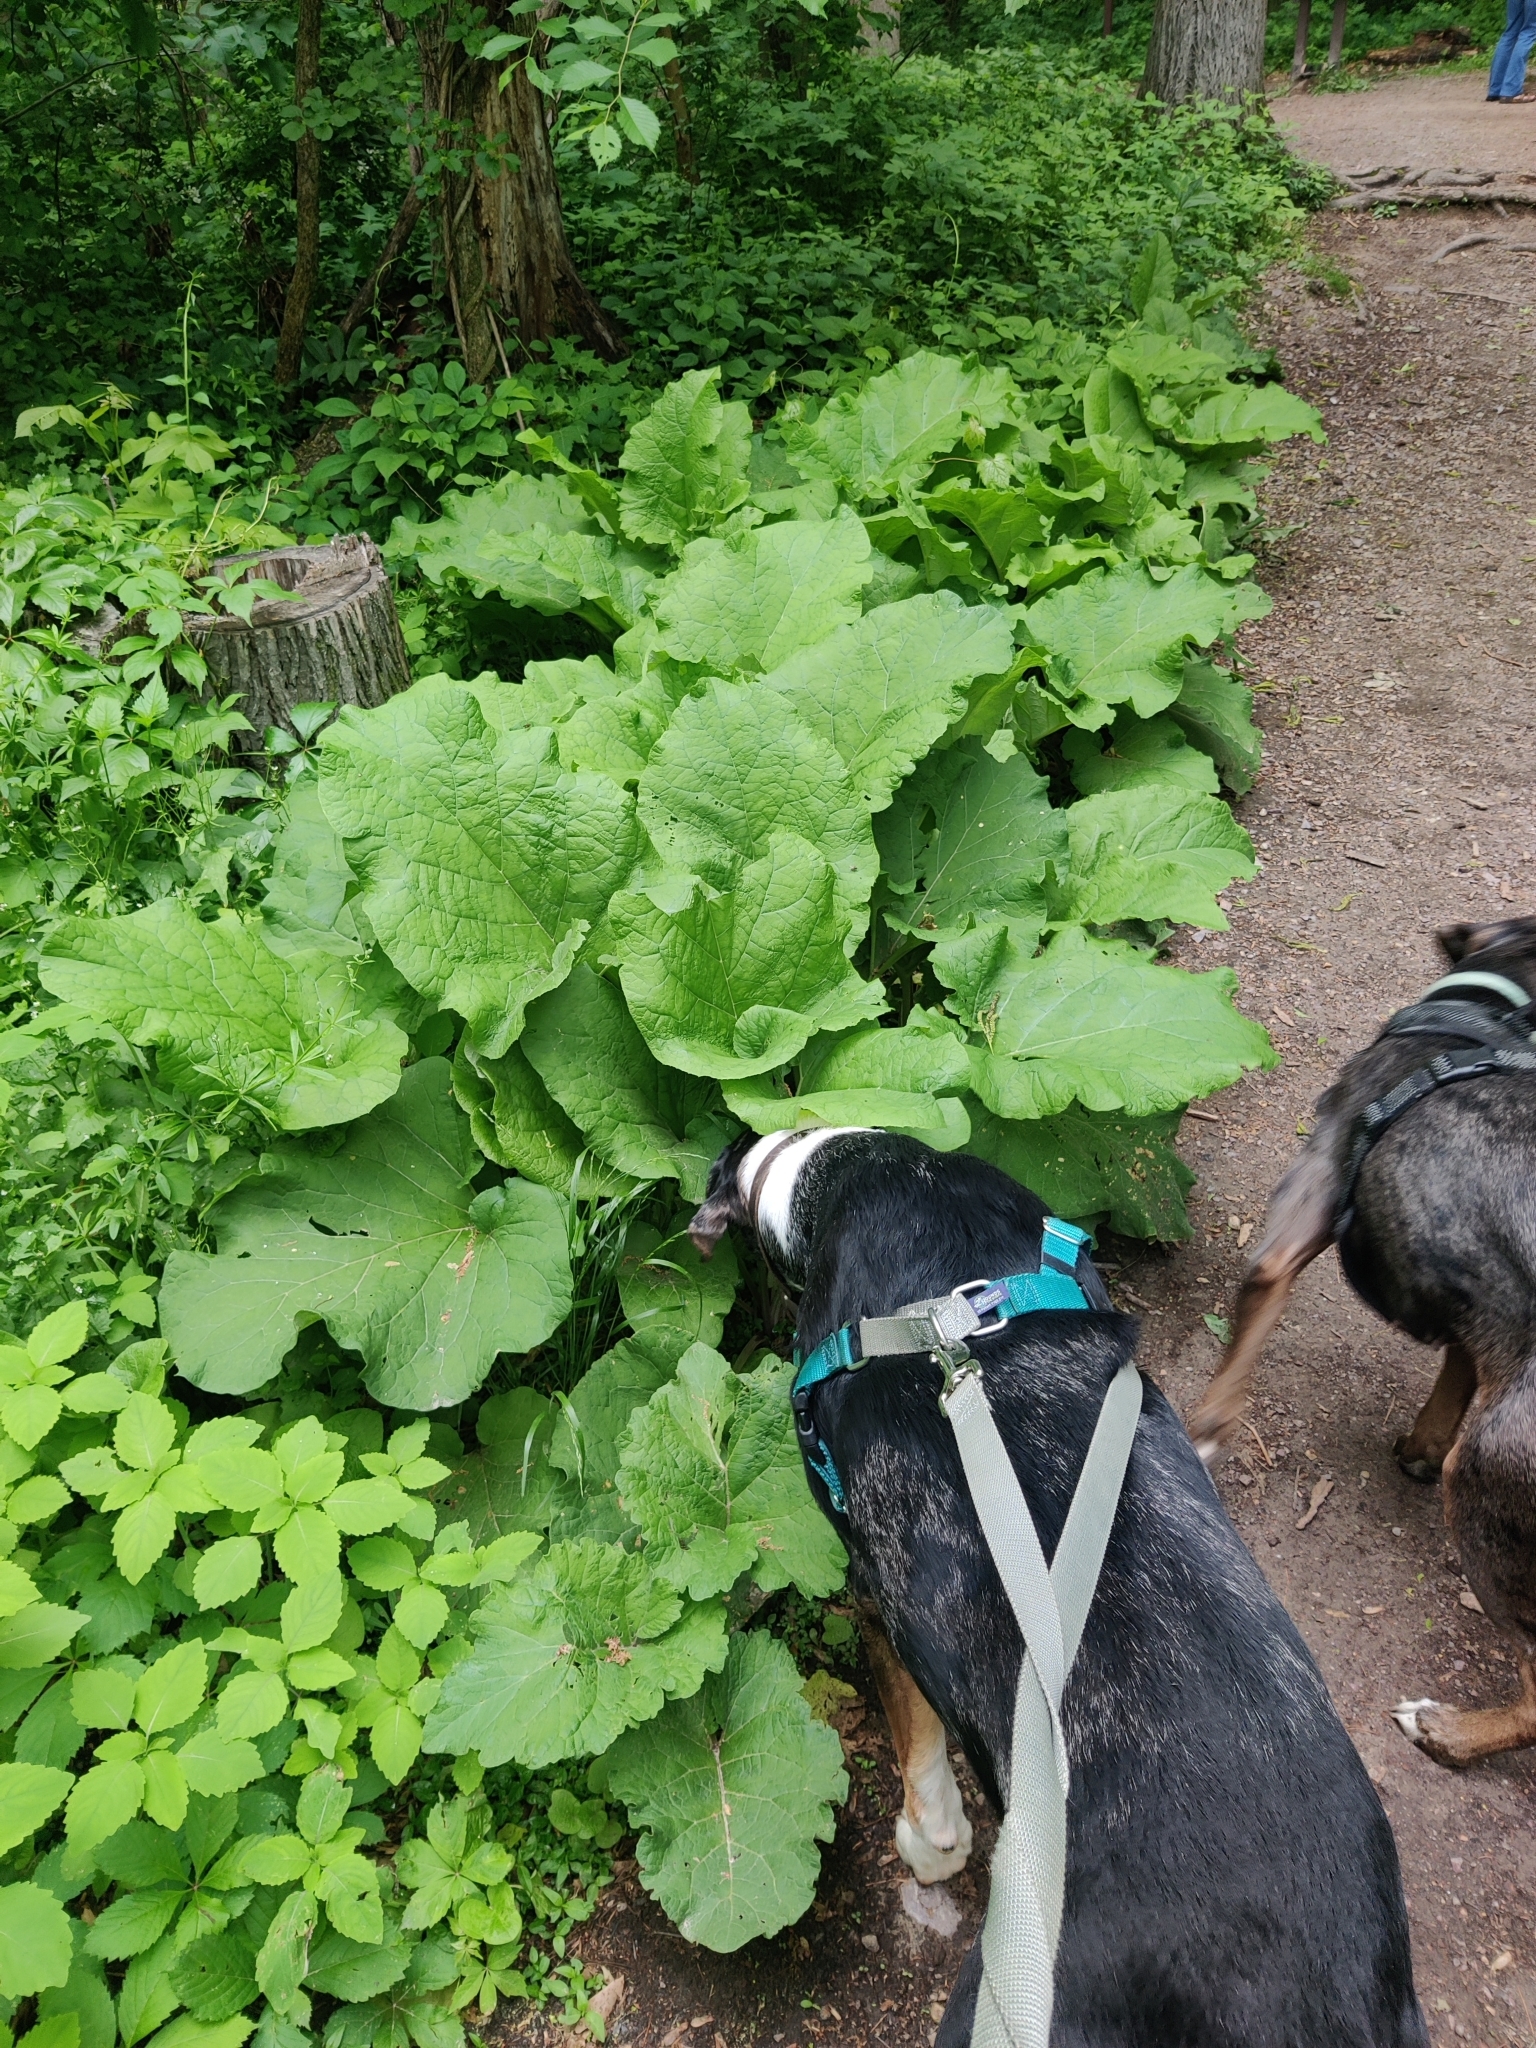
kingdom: Plantae
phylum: Tracheophyta
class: Magnoliopsida
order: Asterales
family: Asteraceae
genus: Arctium
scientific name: Arctium
